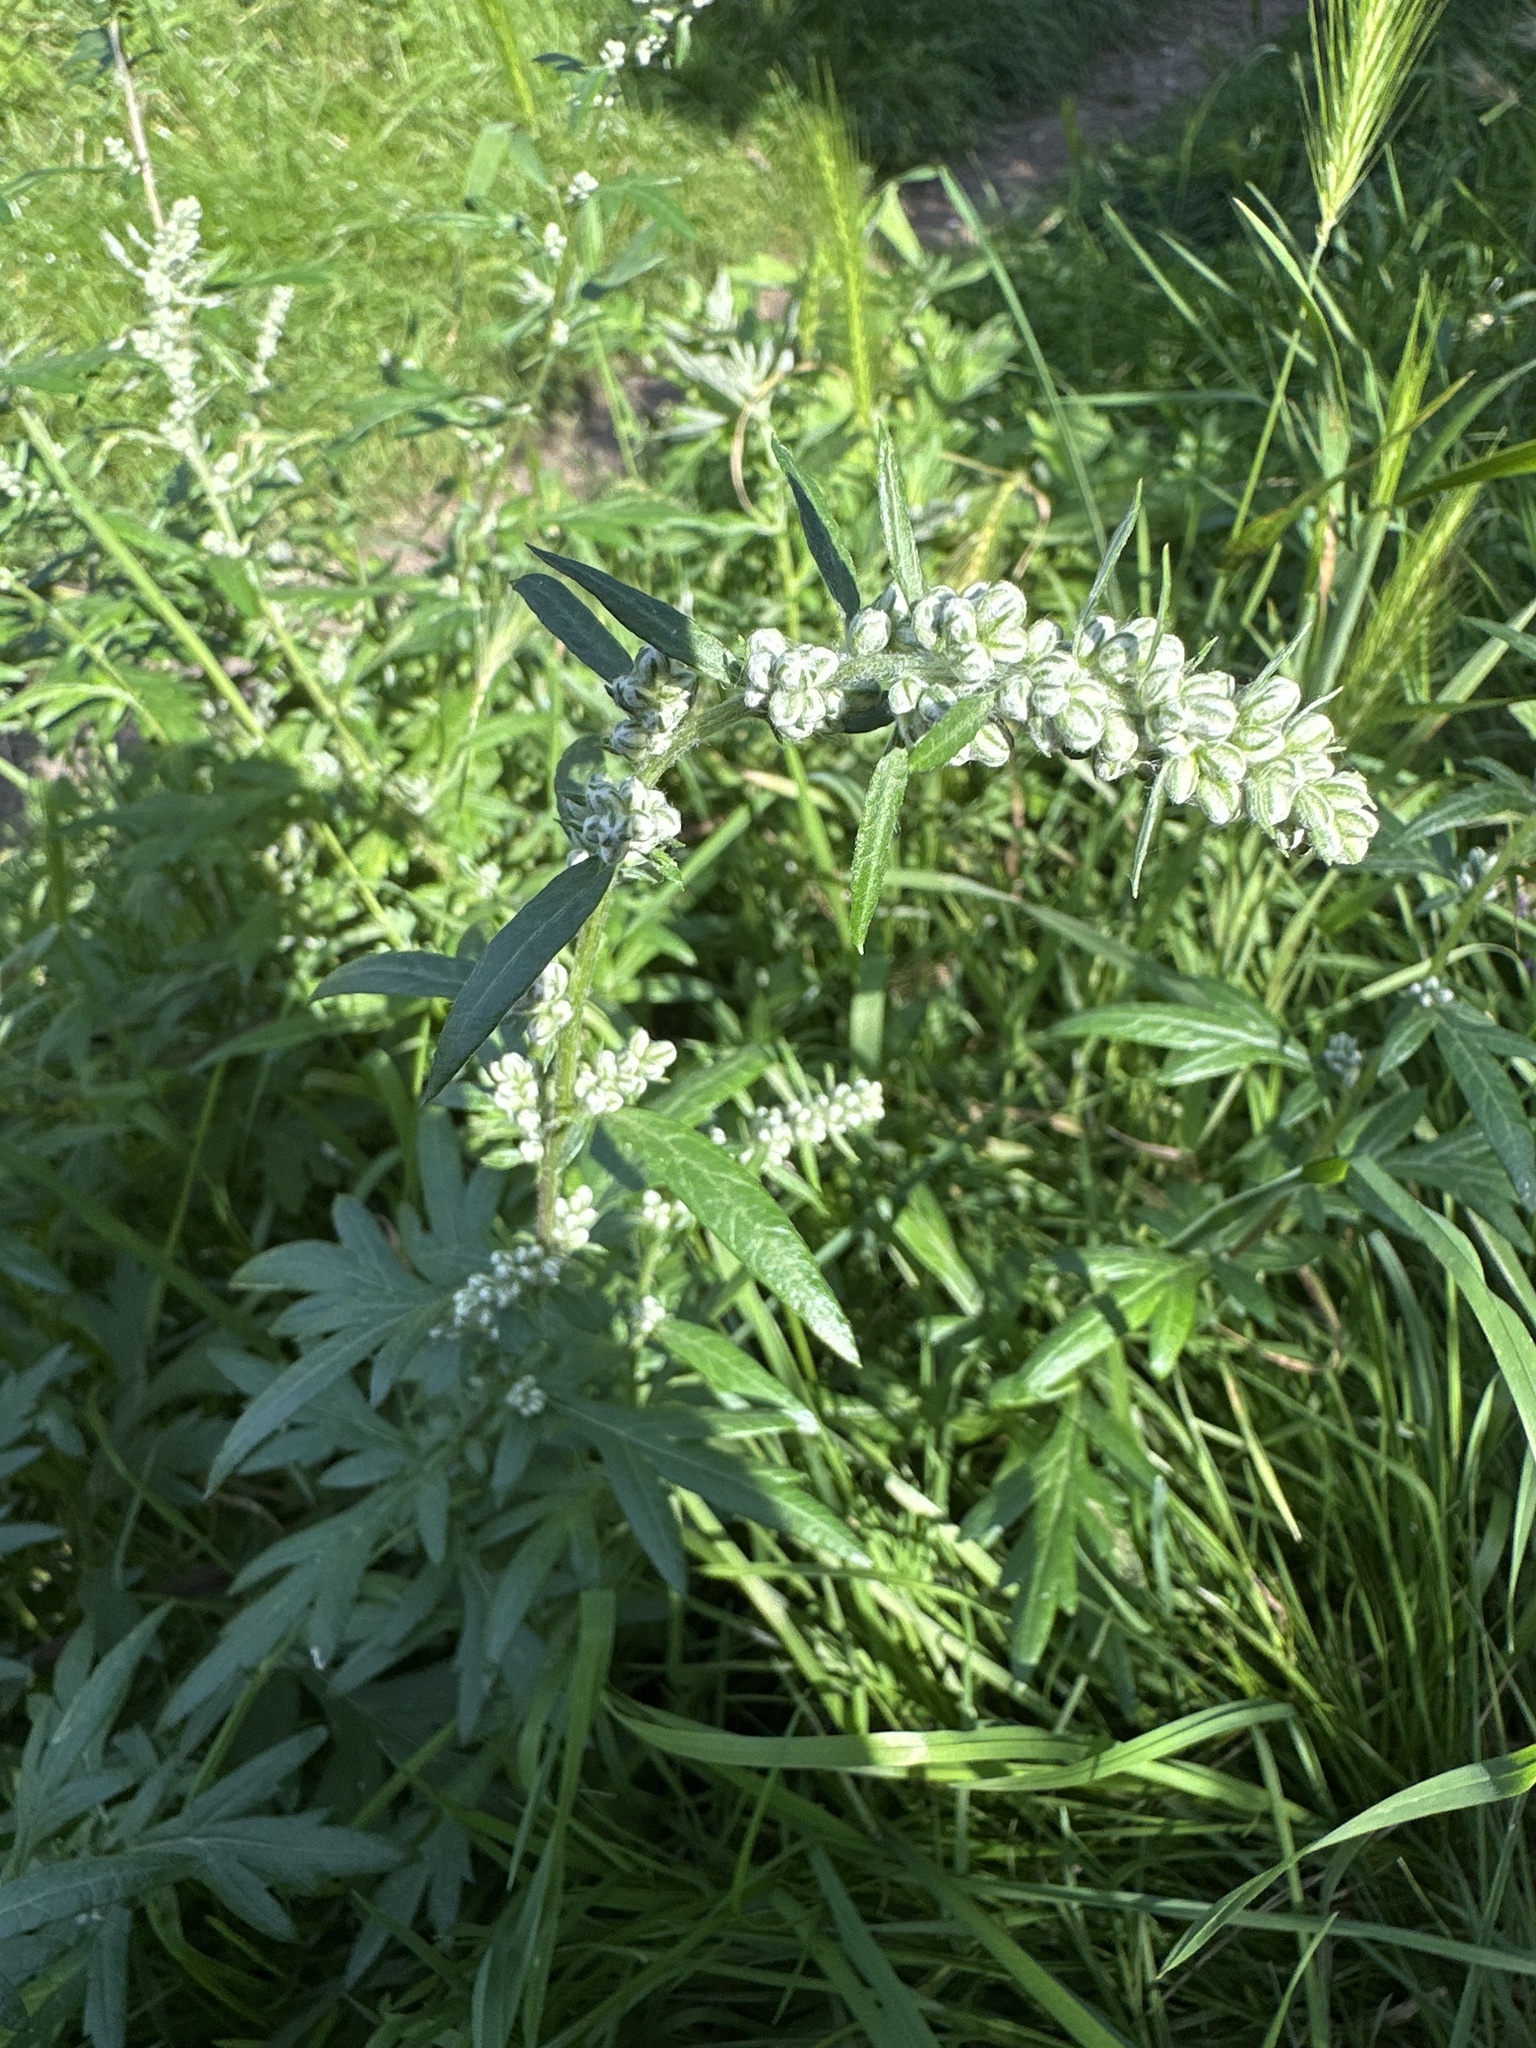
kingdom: Plantae
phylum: Tracheophyta
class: Magnoliopsida
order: Asterales
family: Asteraceae
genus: Artemisia
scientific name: Artemisia vulgaris
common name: Mugwort
